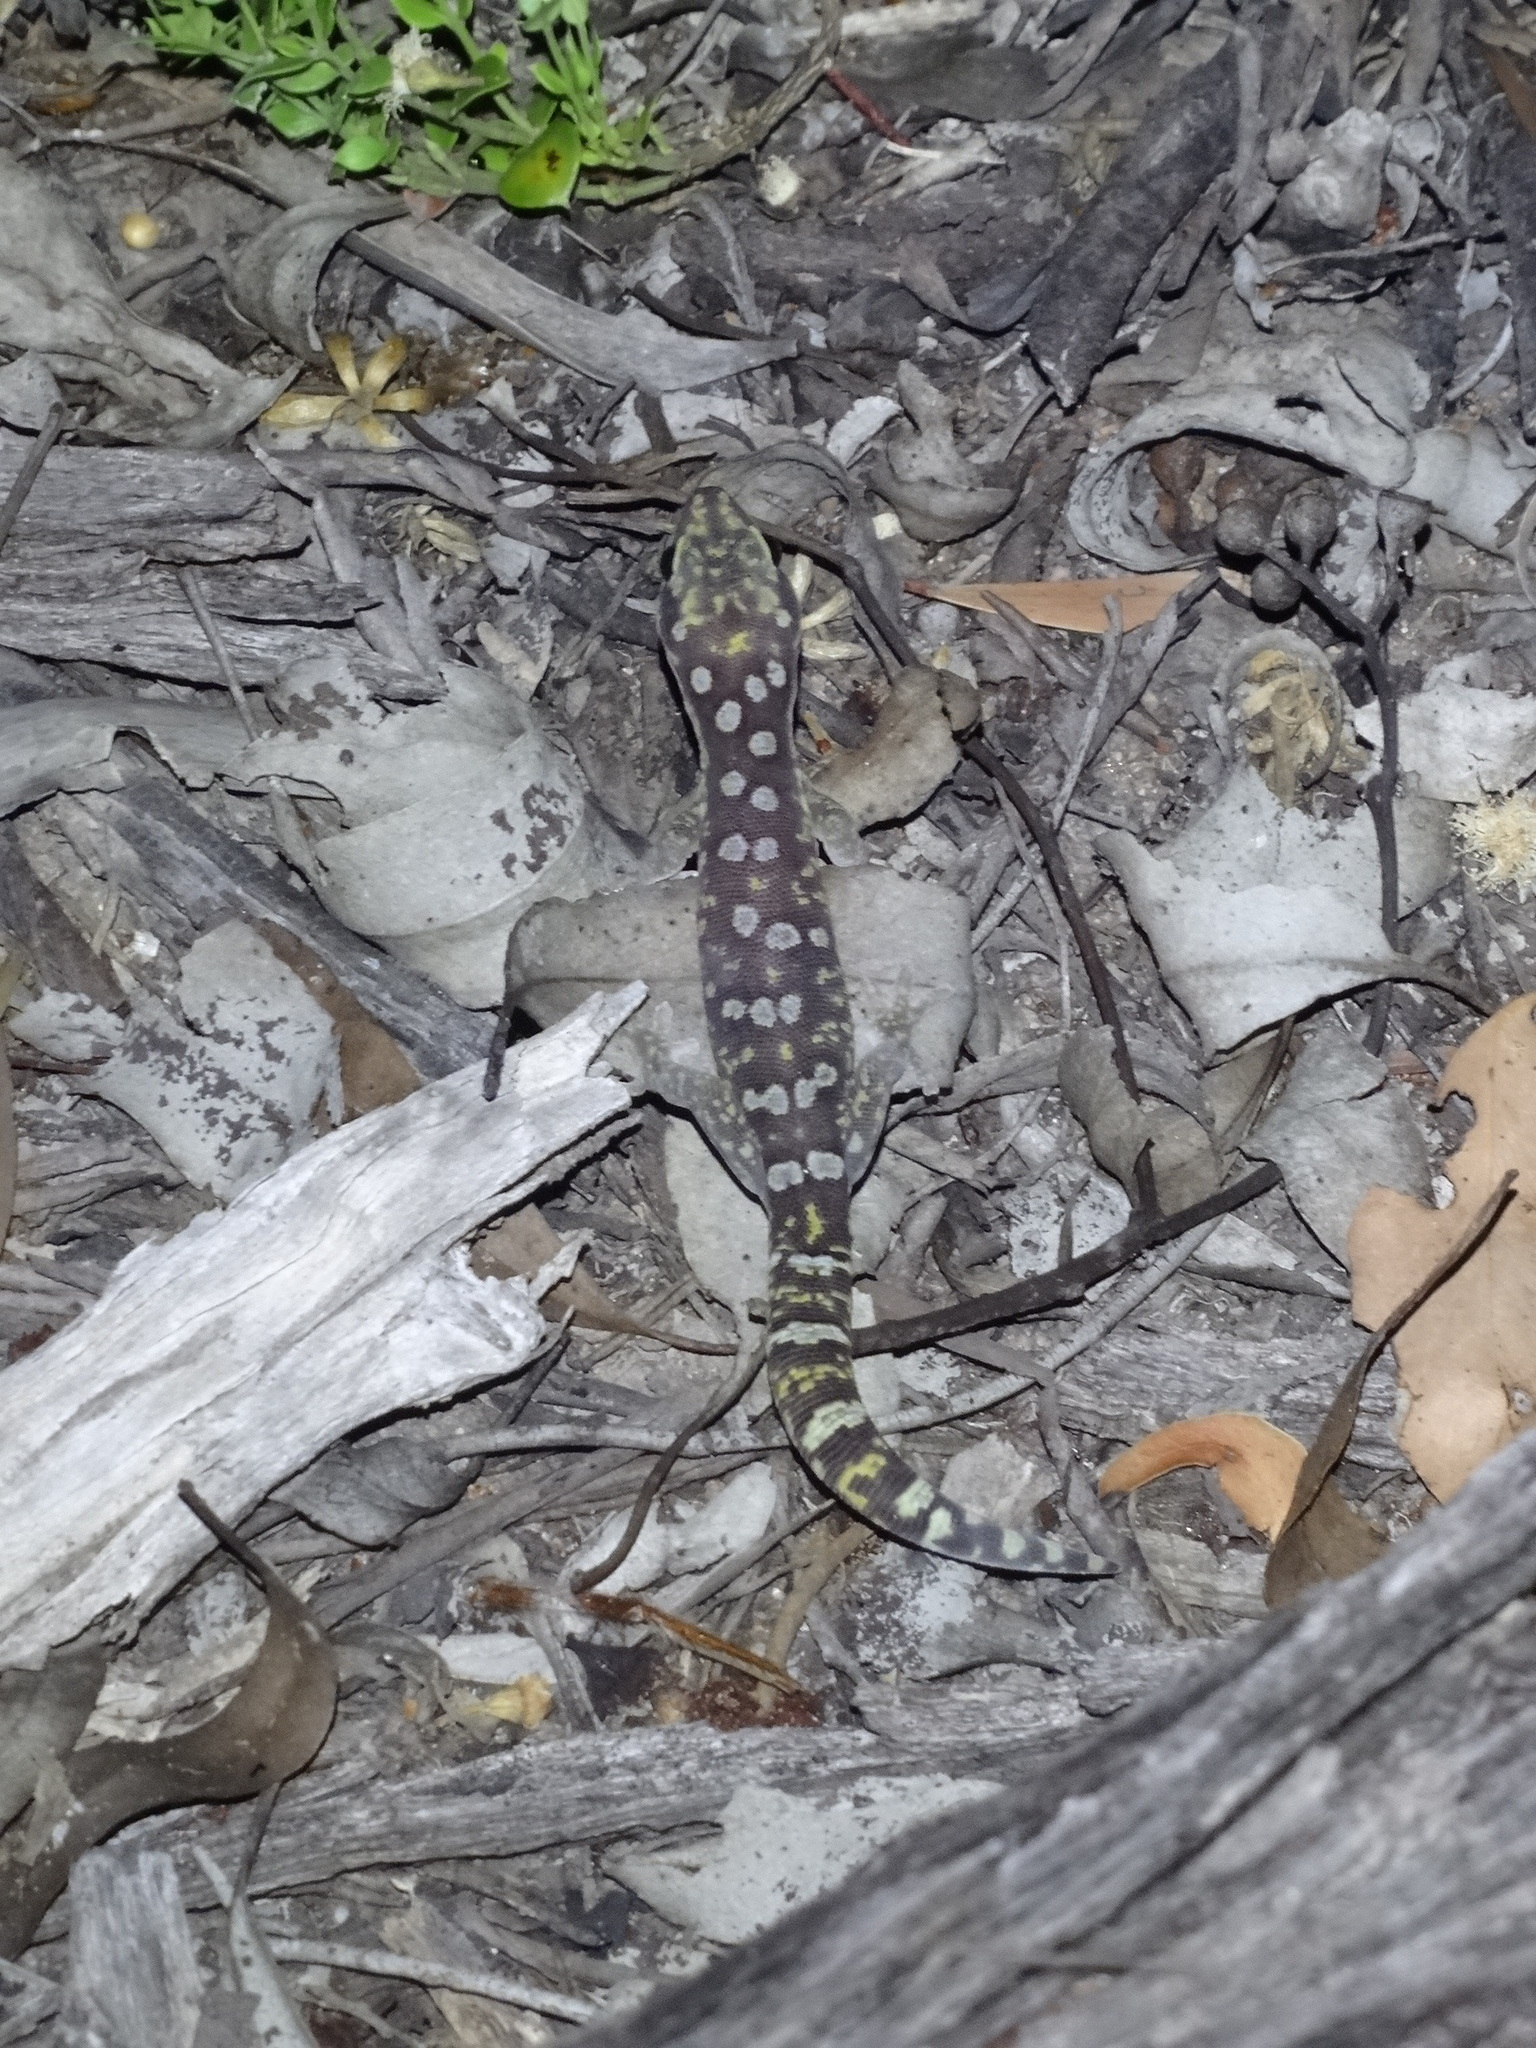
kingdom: Animalia
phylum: Chordata
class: Squamata
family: Diplodactylidae
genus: Oedura
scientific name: Oedura monilis
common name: Blotched gecko
